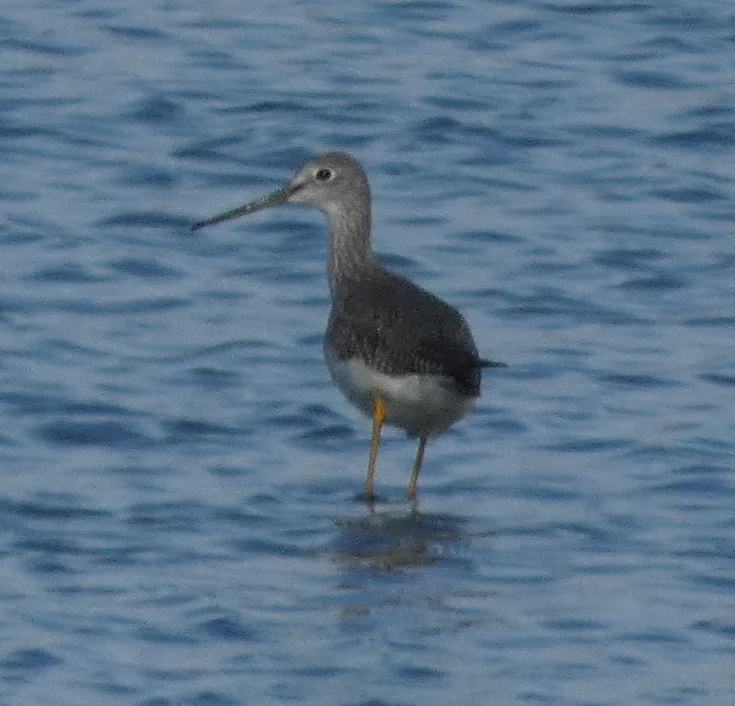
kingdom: Animalia
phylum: Chordata
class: Aves
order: Charadriiformes
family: Scolopacidae
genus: Tringa
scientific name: Tringa melanoleuca
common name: Greater yellowlegs
